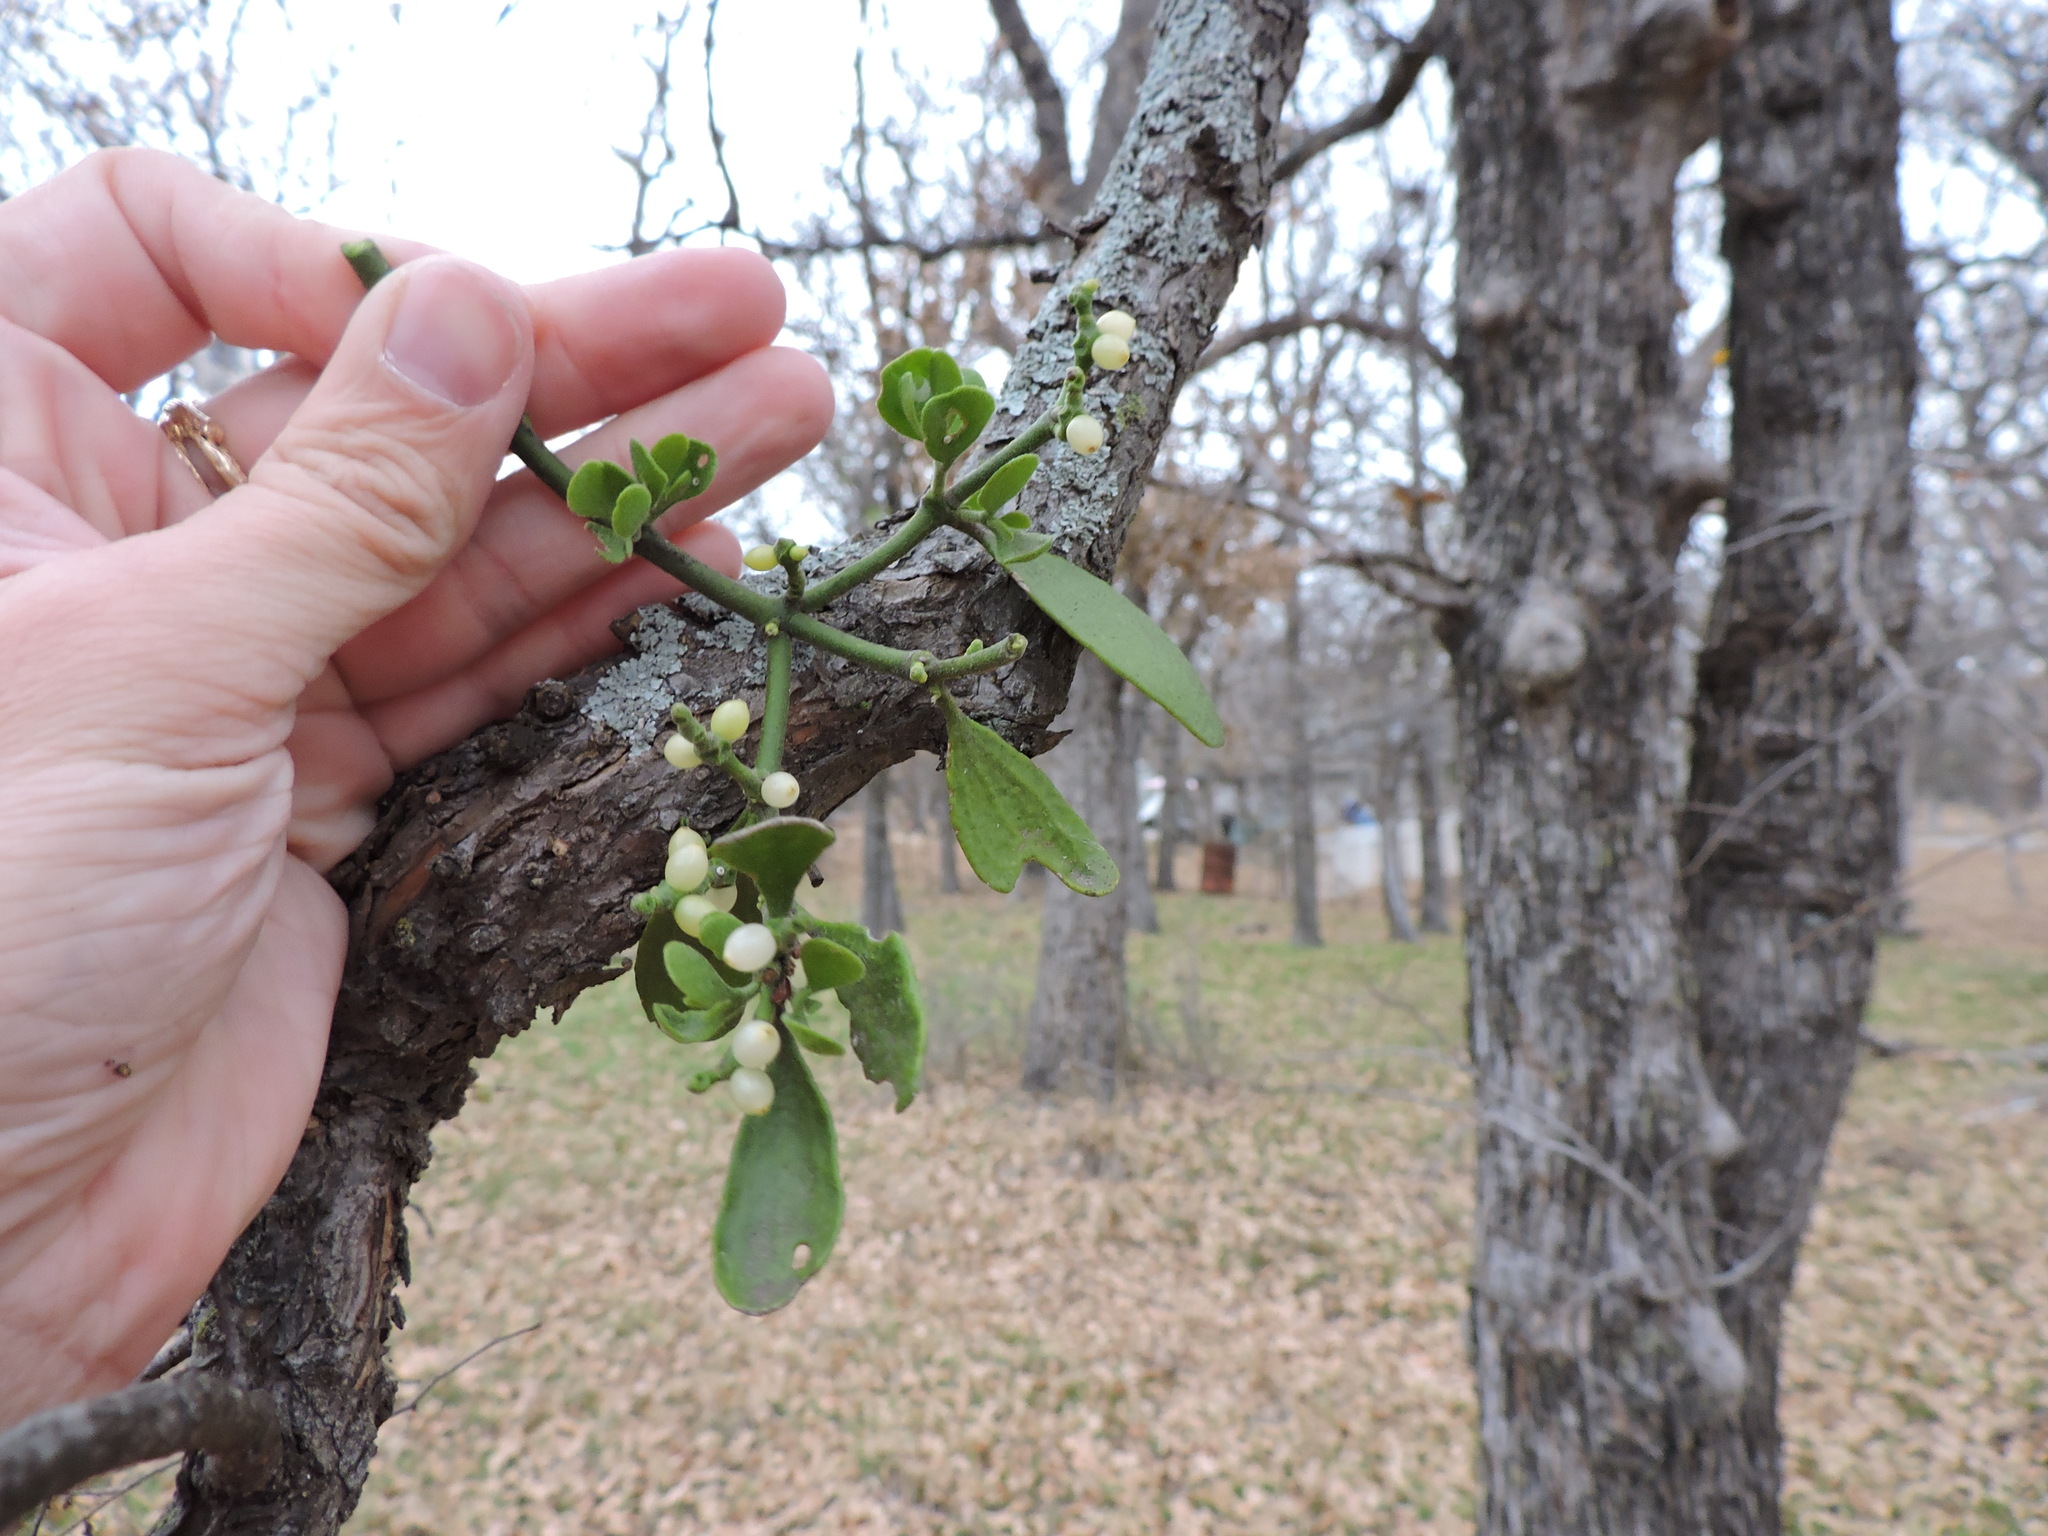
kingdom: Plantae
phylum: Tracheophyta
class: Magnoliopsida
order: Santalales
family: Viscaceae
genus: Phoradendron
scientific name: Phoradendron leucarpum
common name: Pacific mistletoe
